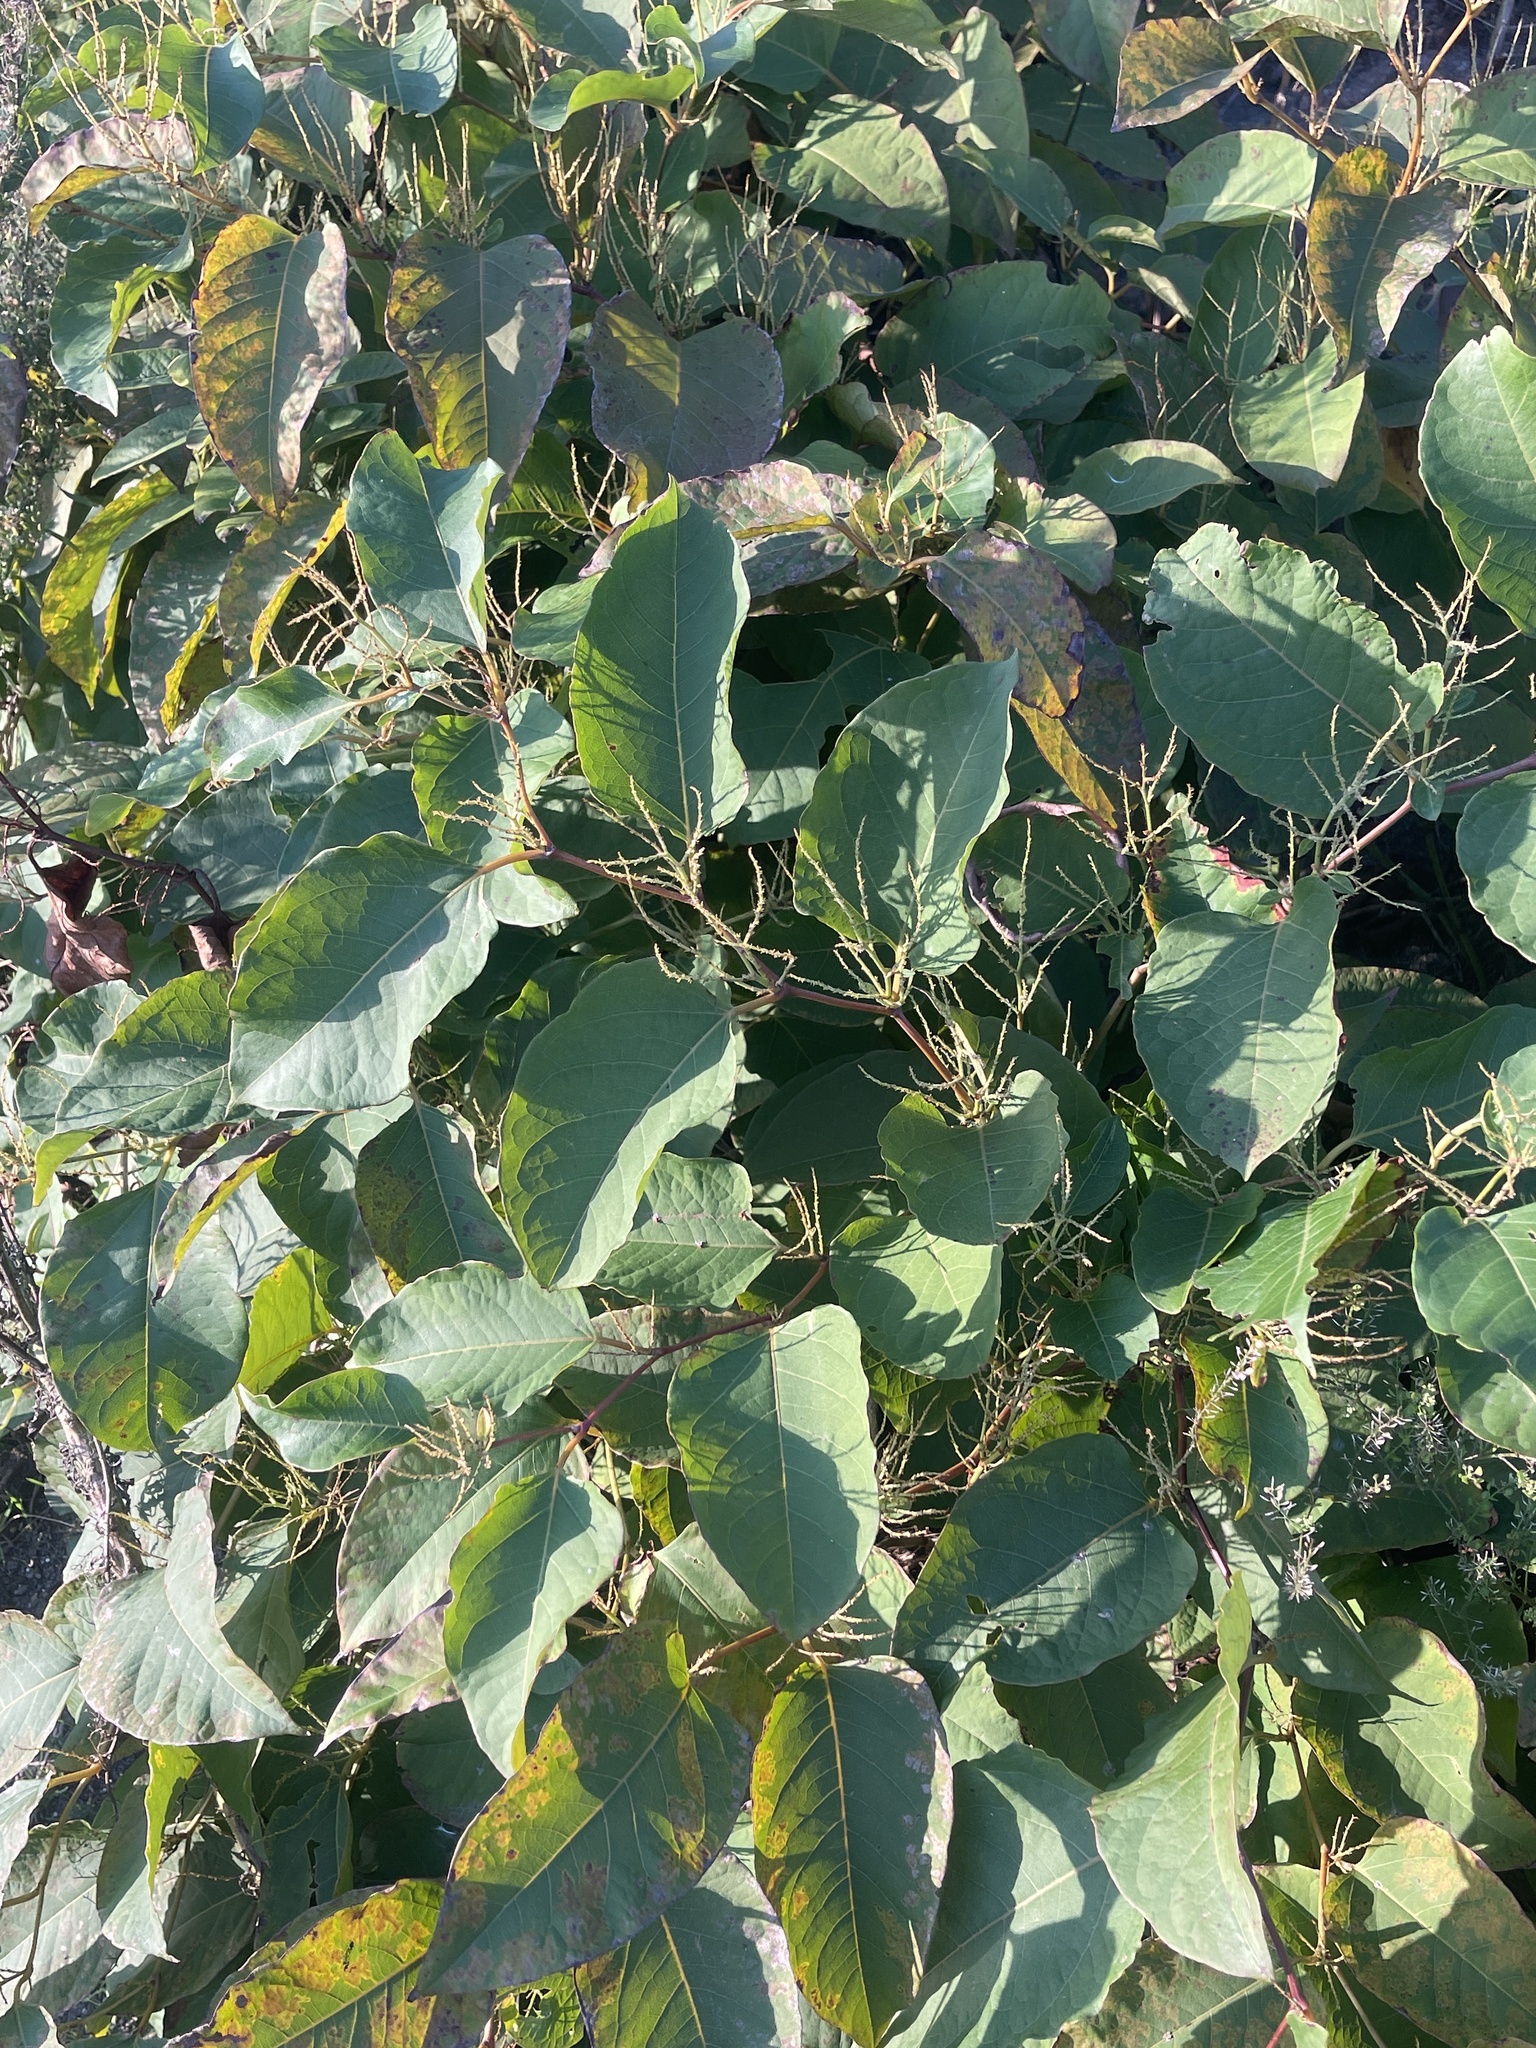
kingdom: Plantae
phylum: Tracheophyta
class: Magnoliopsida
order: Caryophyllales
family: Polygonaceae
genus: Reynoutria
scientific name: Reynoutria japonica
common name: Japanese knotweed
